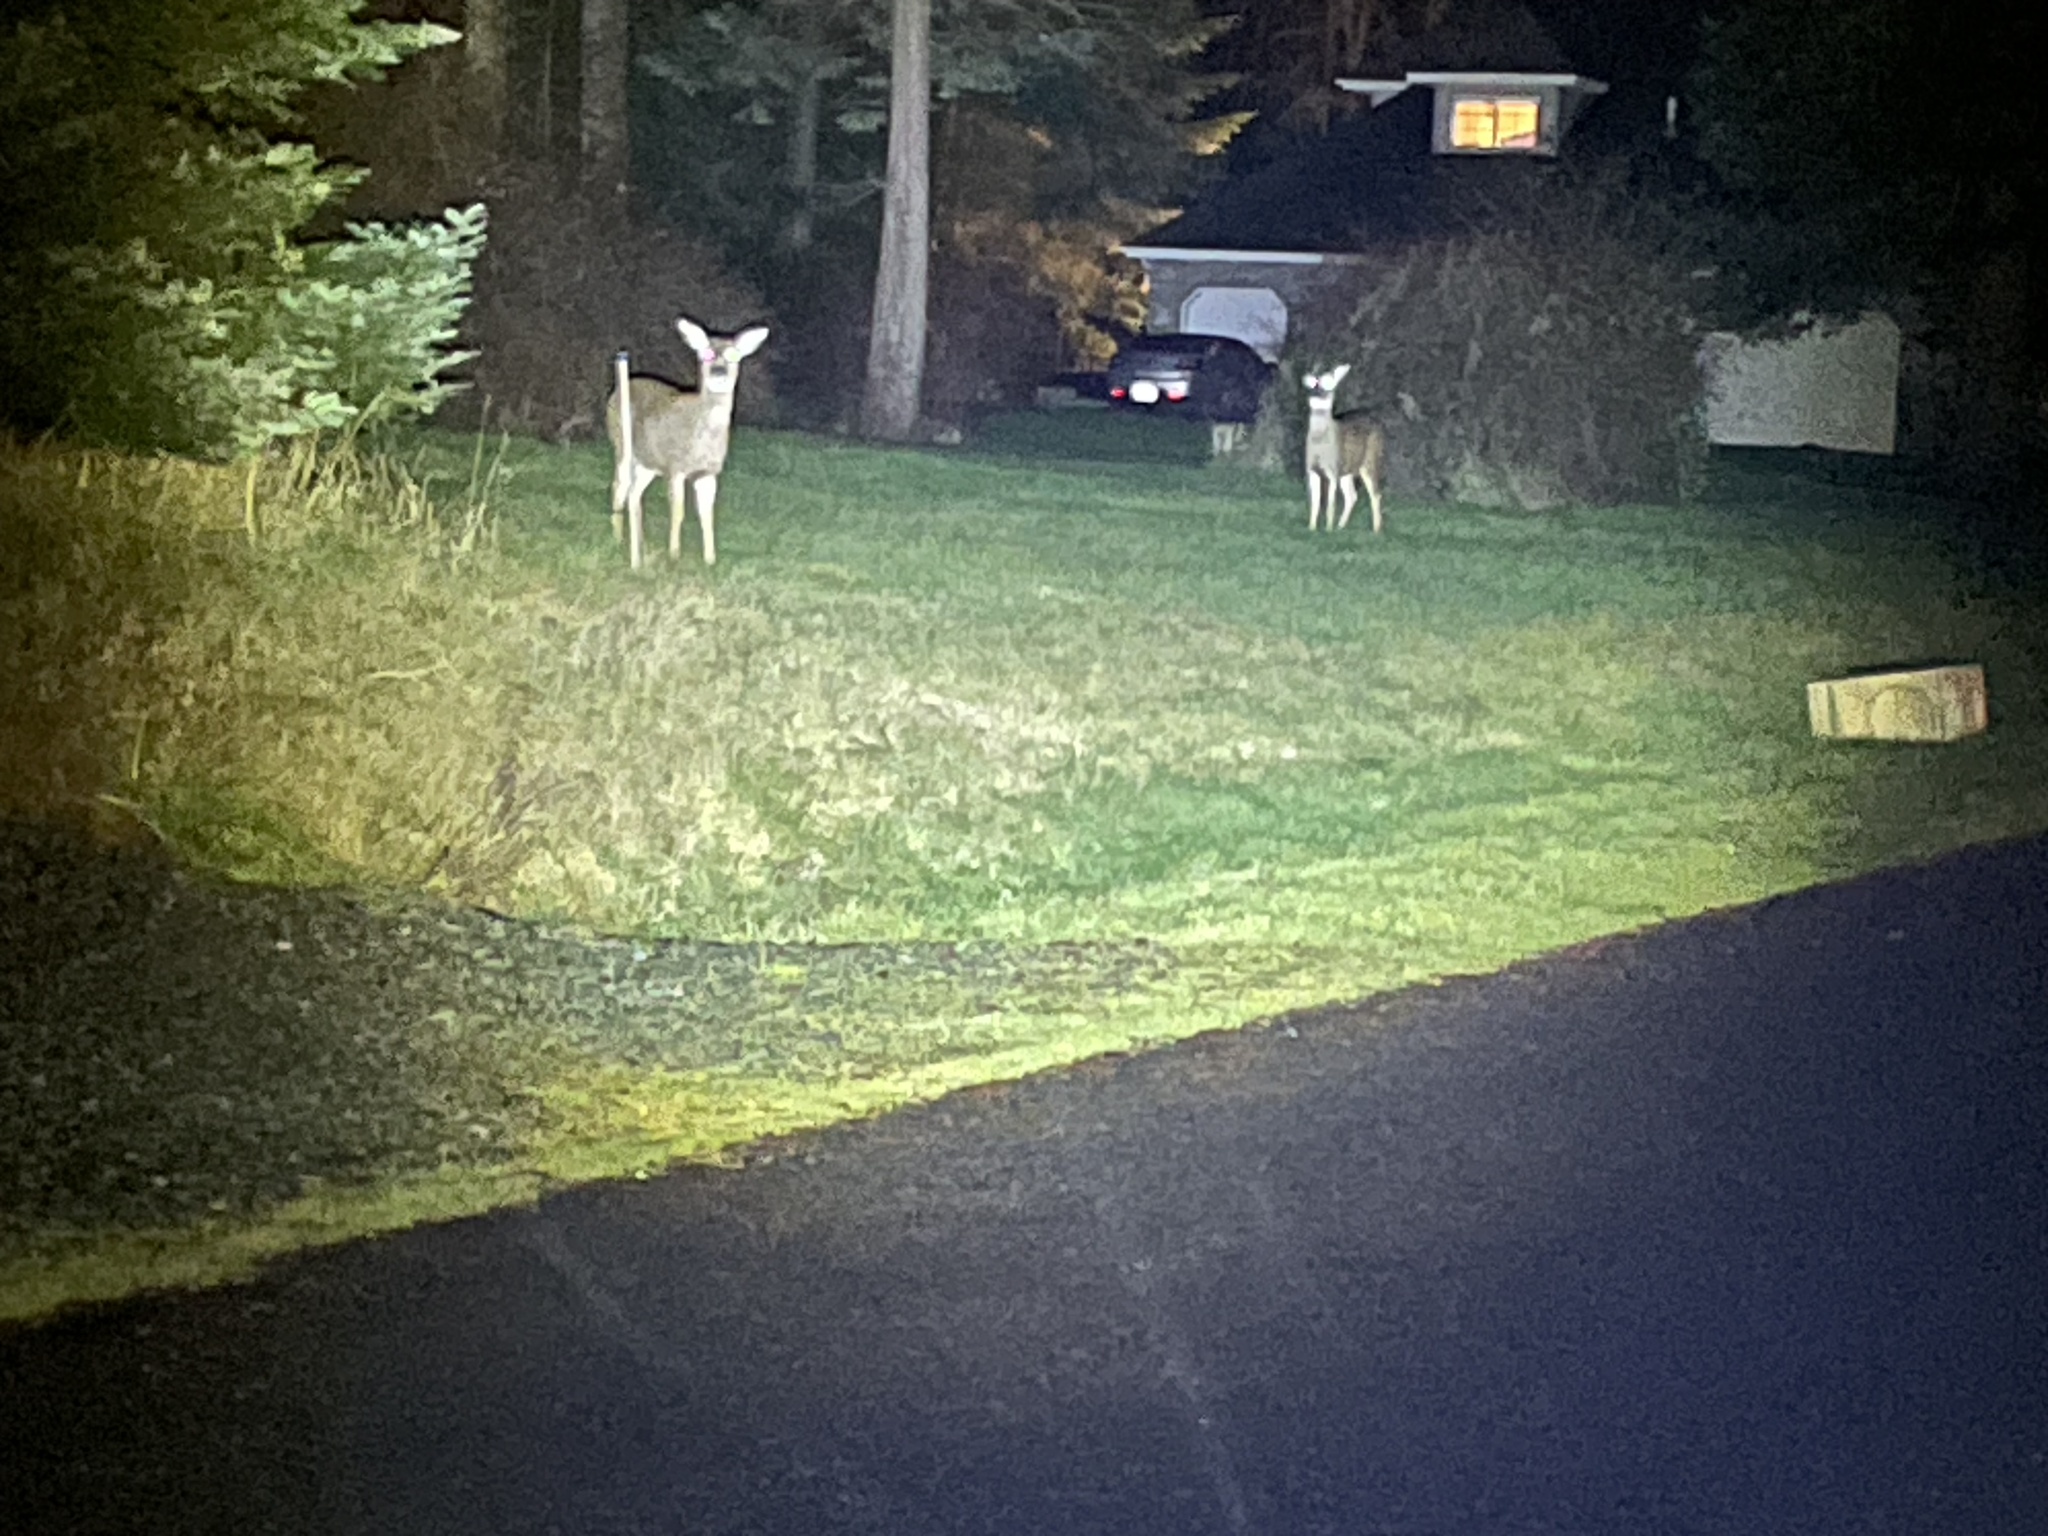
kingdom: Animalia
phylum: Chordata
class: Mammalia
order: Artiodactyla
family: Cervidae
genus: Odocoileus
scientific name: Odocoileus hemionus
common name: Mule deer
